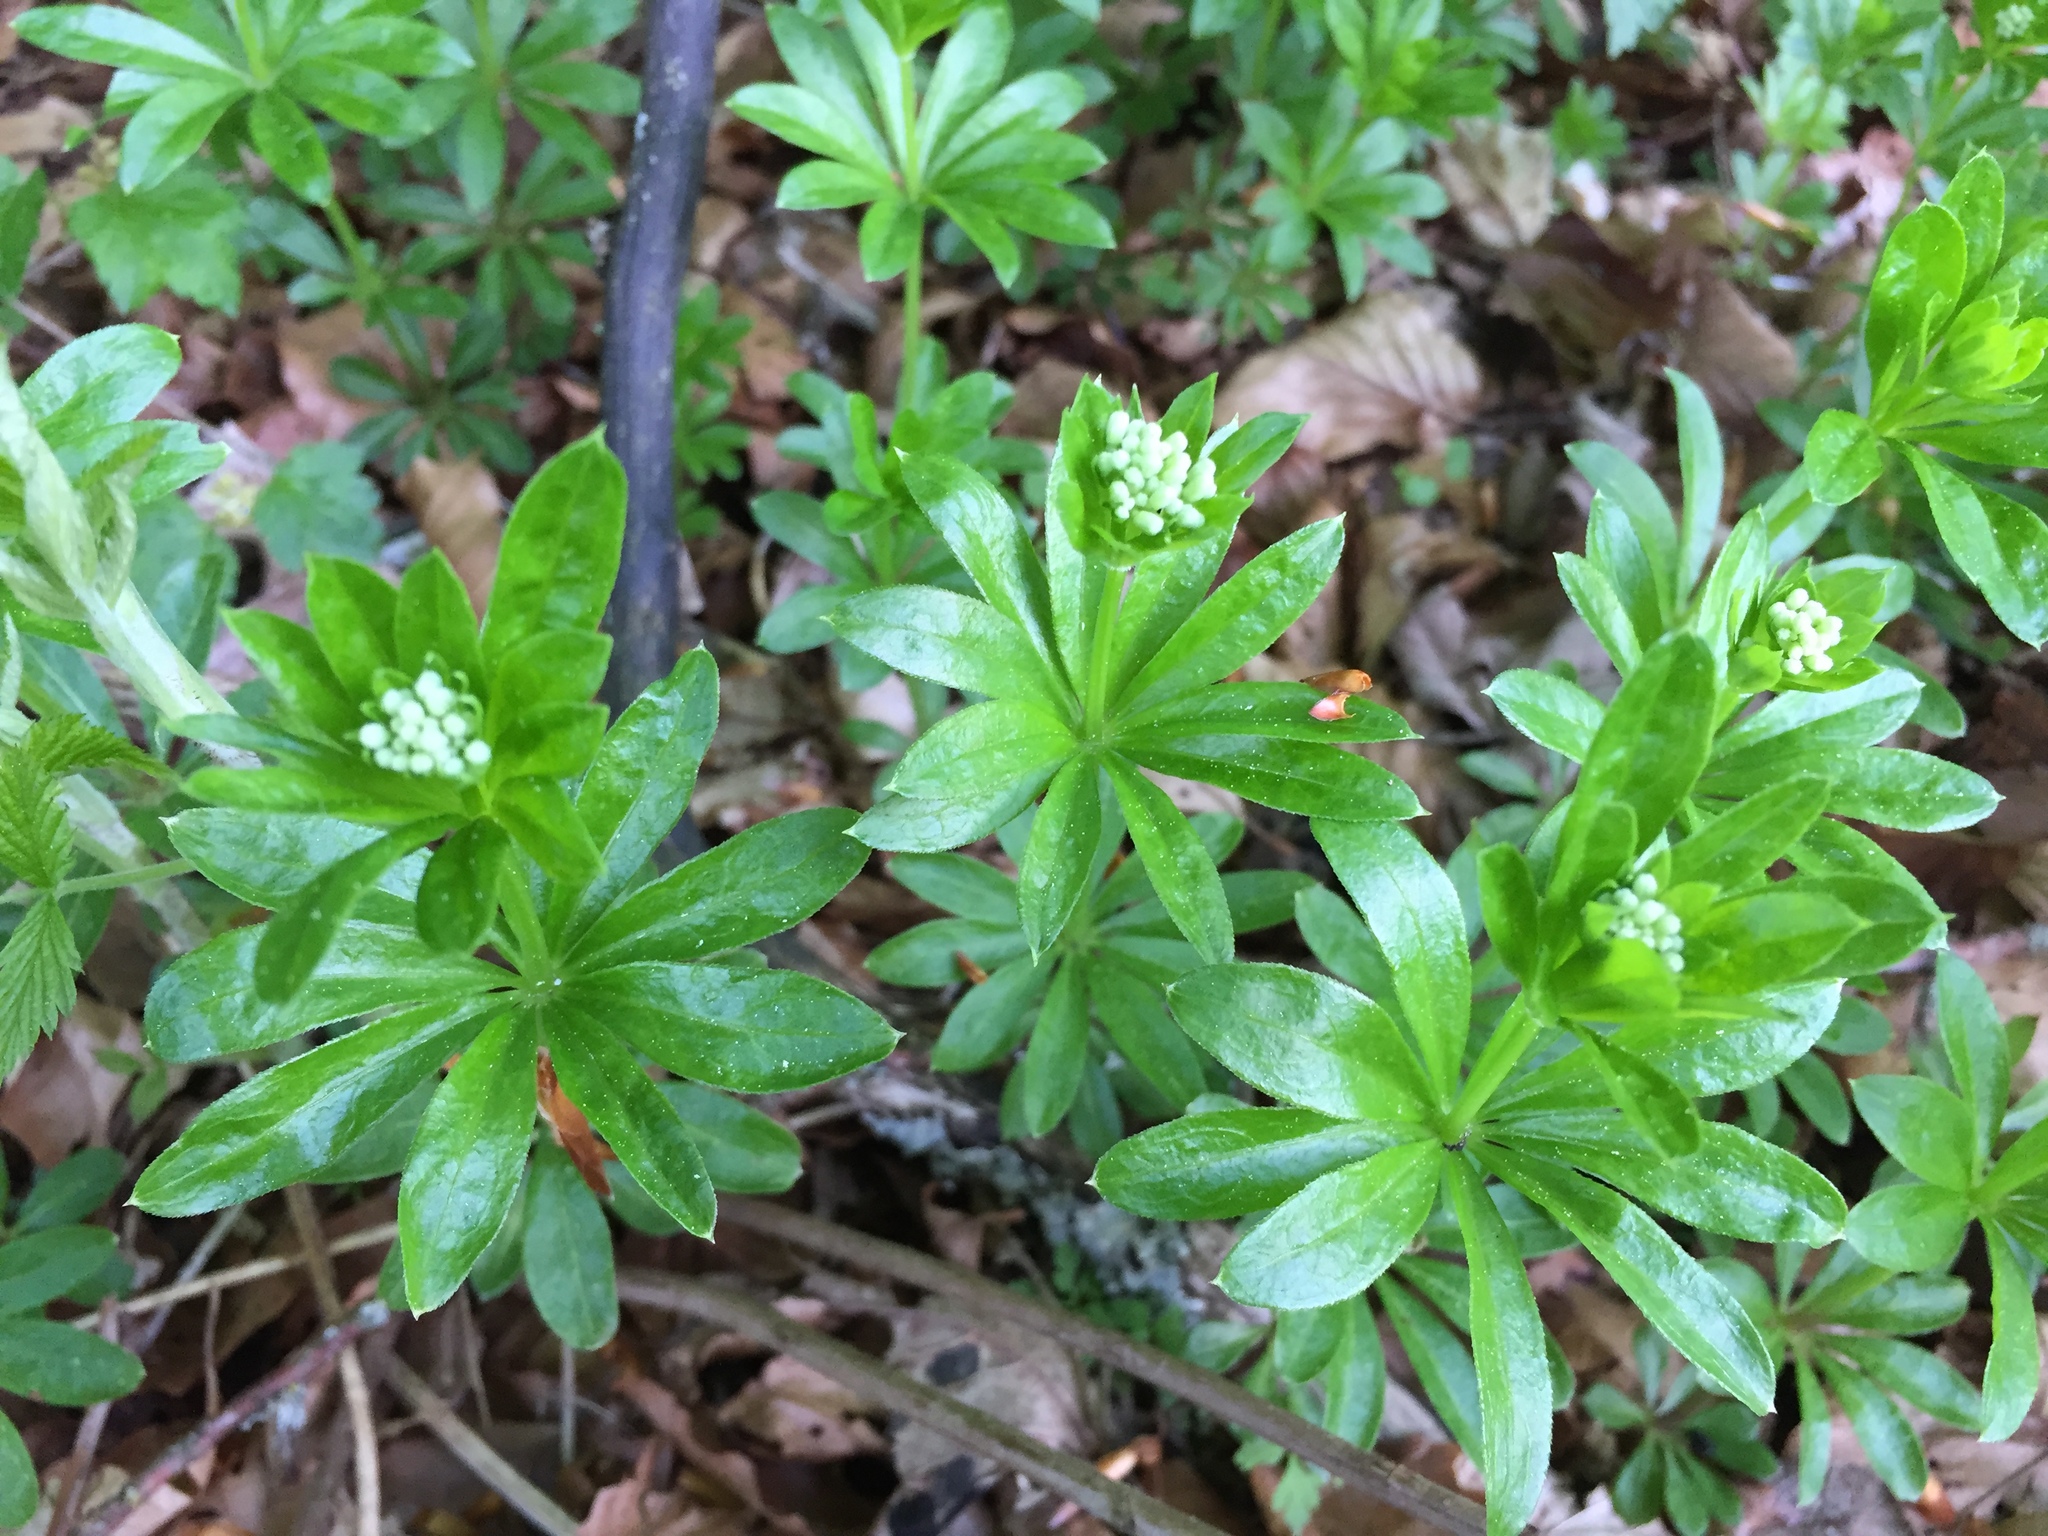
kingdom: Plantae
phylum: Tracheophyta
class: Magnoliopsida
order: Gentianales
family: Rubiaceae
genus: Galium
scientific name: Galium odoratum
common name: Sweet woodruff
